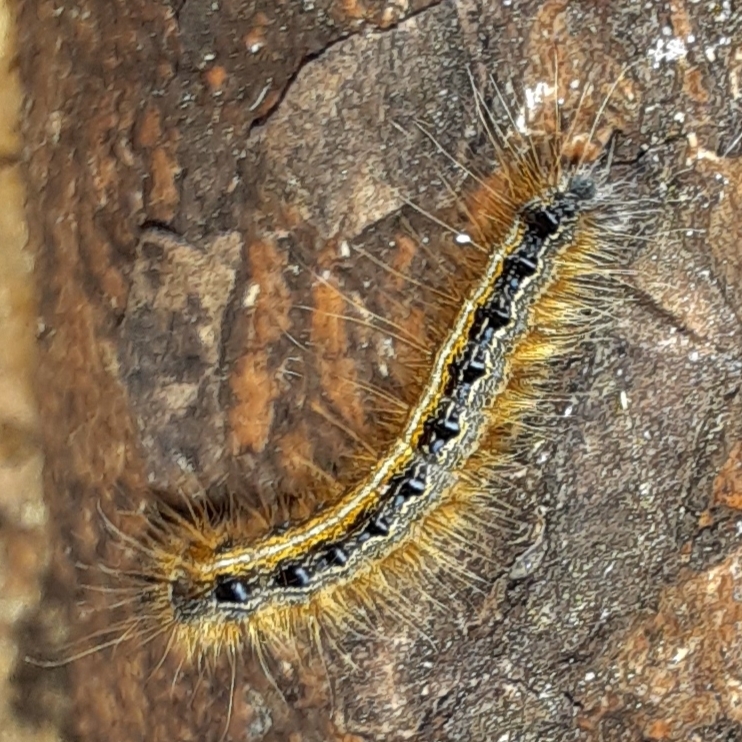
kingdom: Animalia
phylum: Arthropoda
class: Insecta
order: Lepidoptera
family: Lasiocampidae
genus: Malacosoma
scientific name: Malacosoma americana
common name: Eastern tent caterpillar moth
